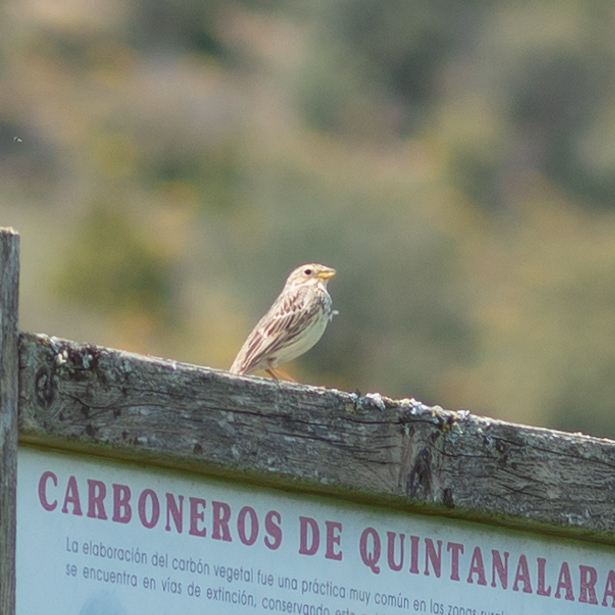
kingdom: Animalia
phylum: Chordata
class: Aves
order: Passeriformes
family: Emberizidae
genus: Emberiza
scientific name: Emberiza calandra
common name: Corn bunting
